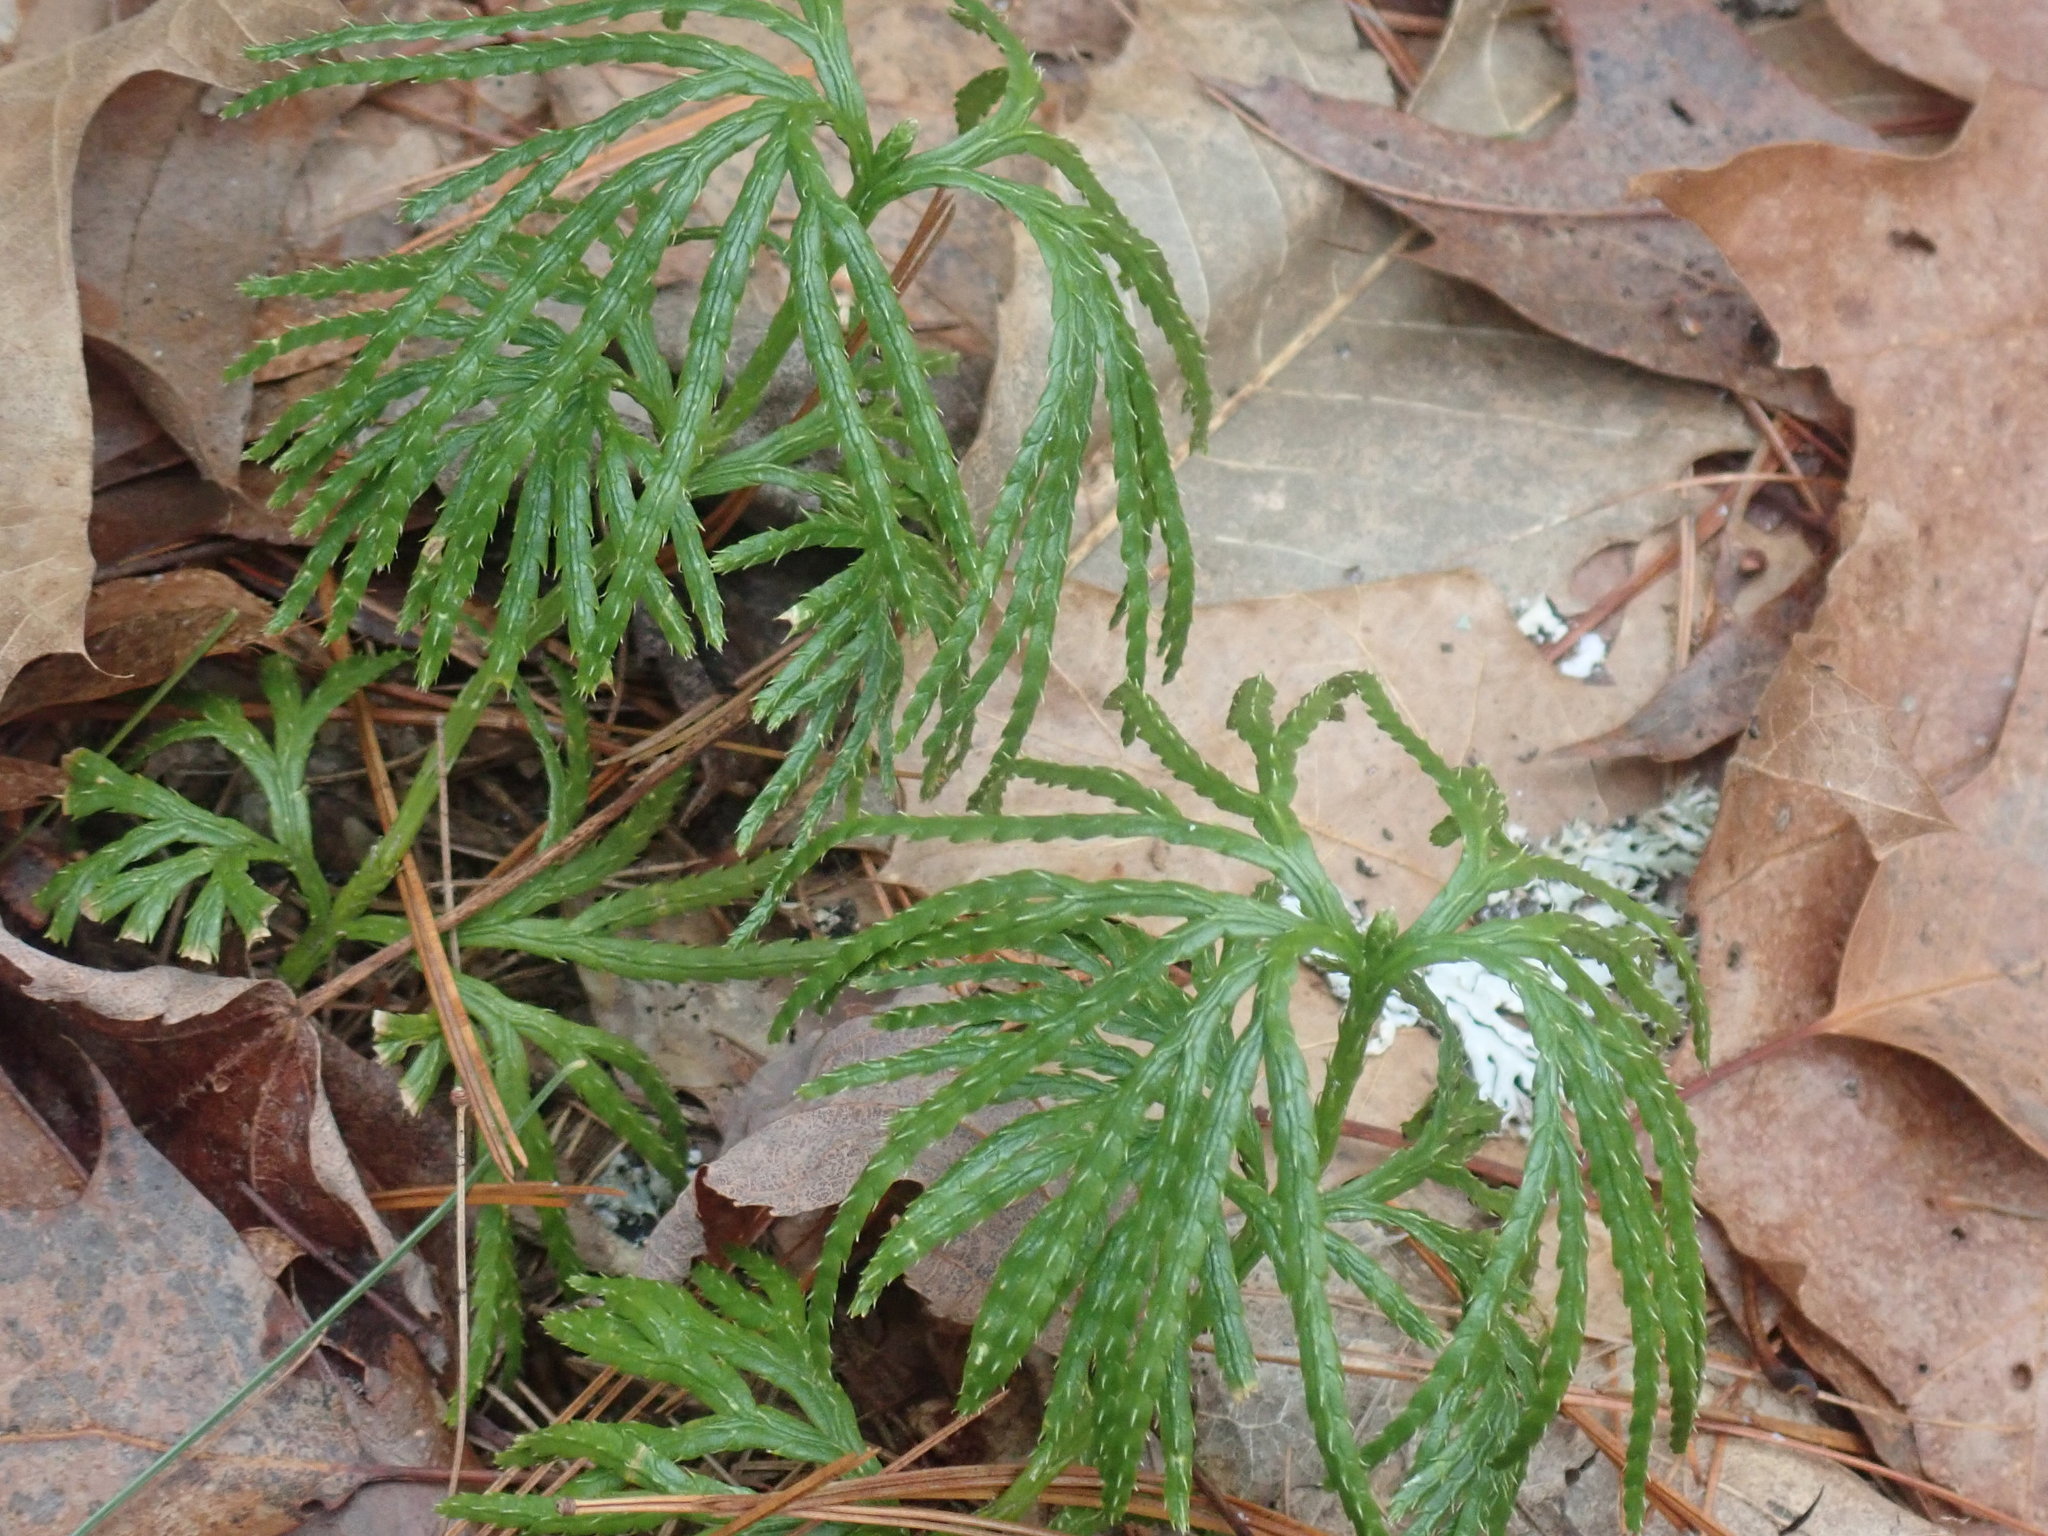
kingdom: Plantae
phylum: Tracheophyta
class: Lycopodiopsida
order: Lycopodiales
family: Lycopodiaceae
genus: Diphasiastrum
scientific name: Diphasiastrum digitatum
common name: Southern running-pine
